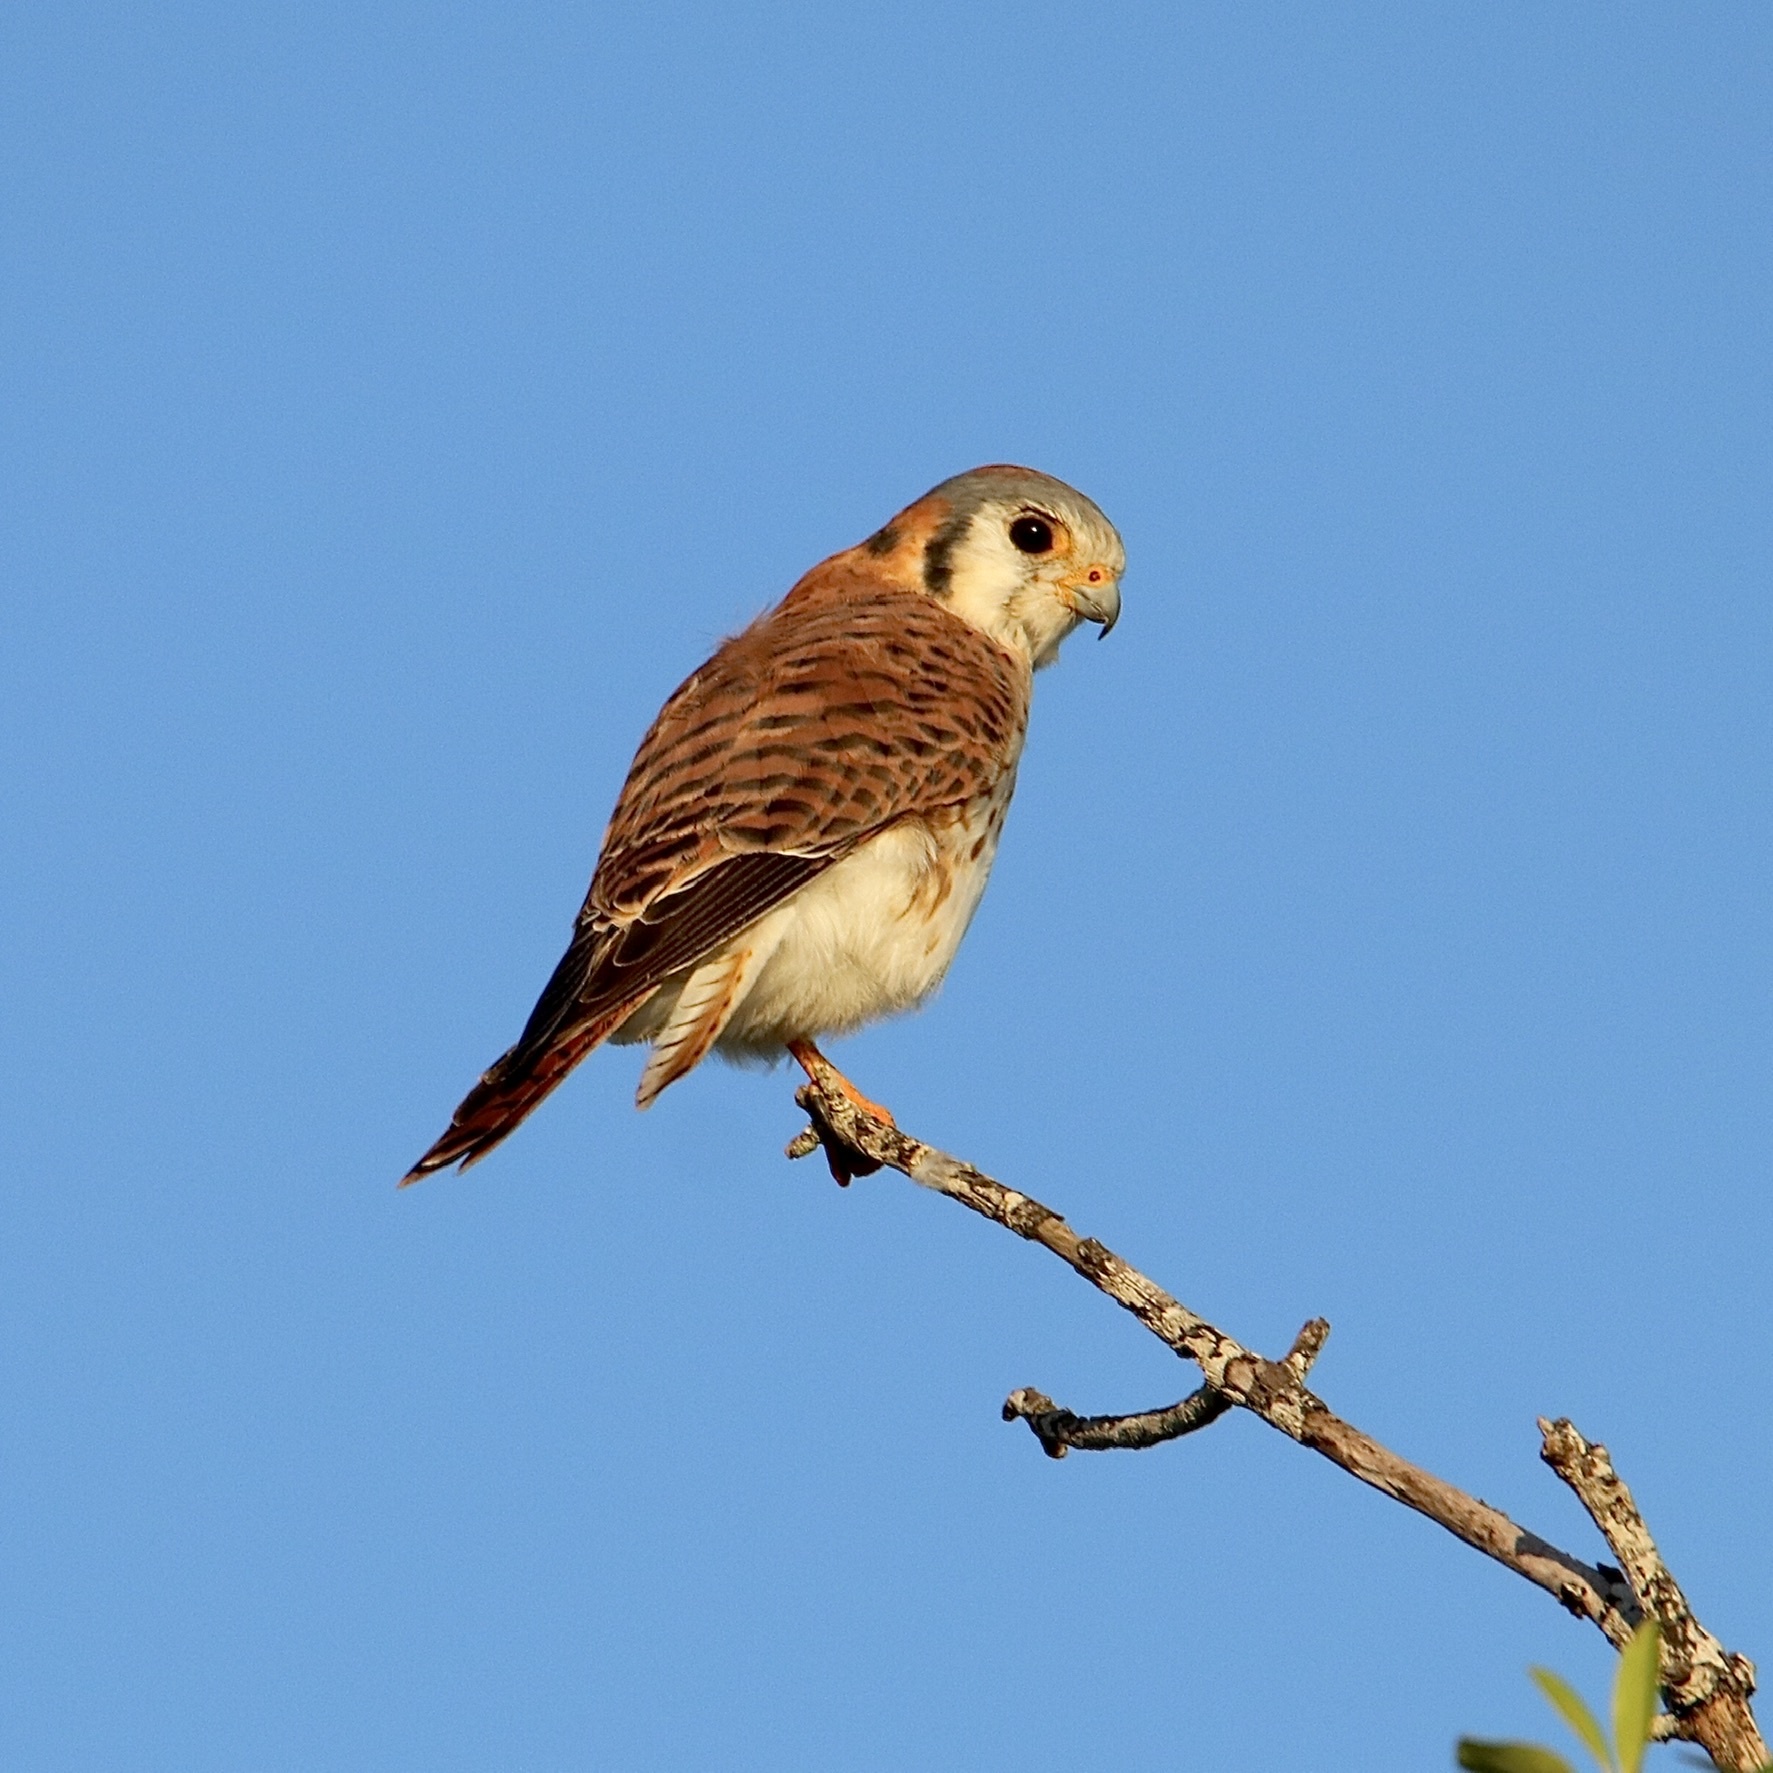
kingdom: Animalia
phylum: Chordata
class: Aves
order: Falconiformes
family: Falconidae
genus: Falco
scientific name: Falco sparverius
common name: American kestrel
